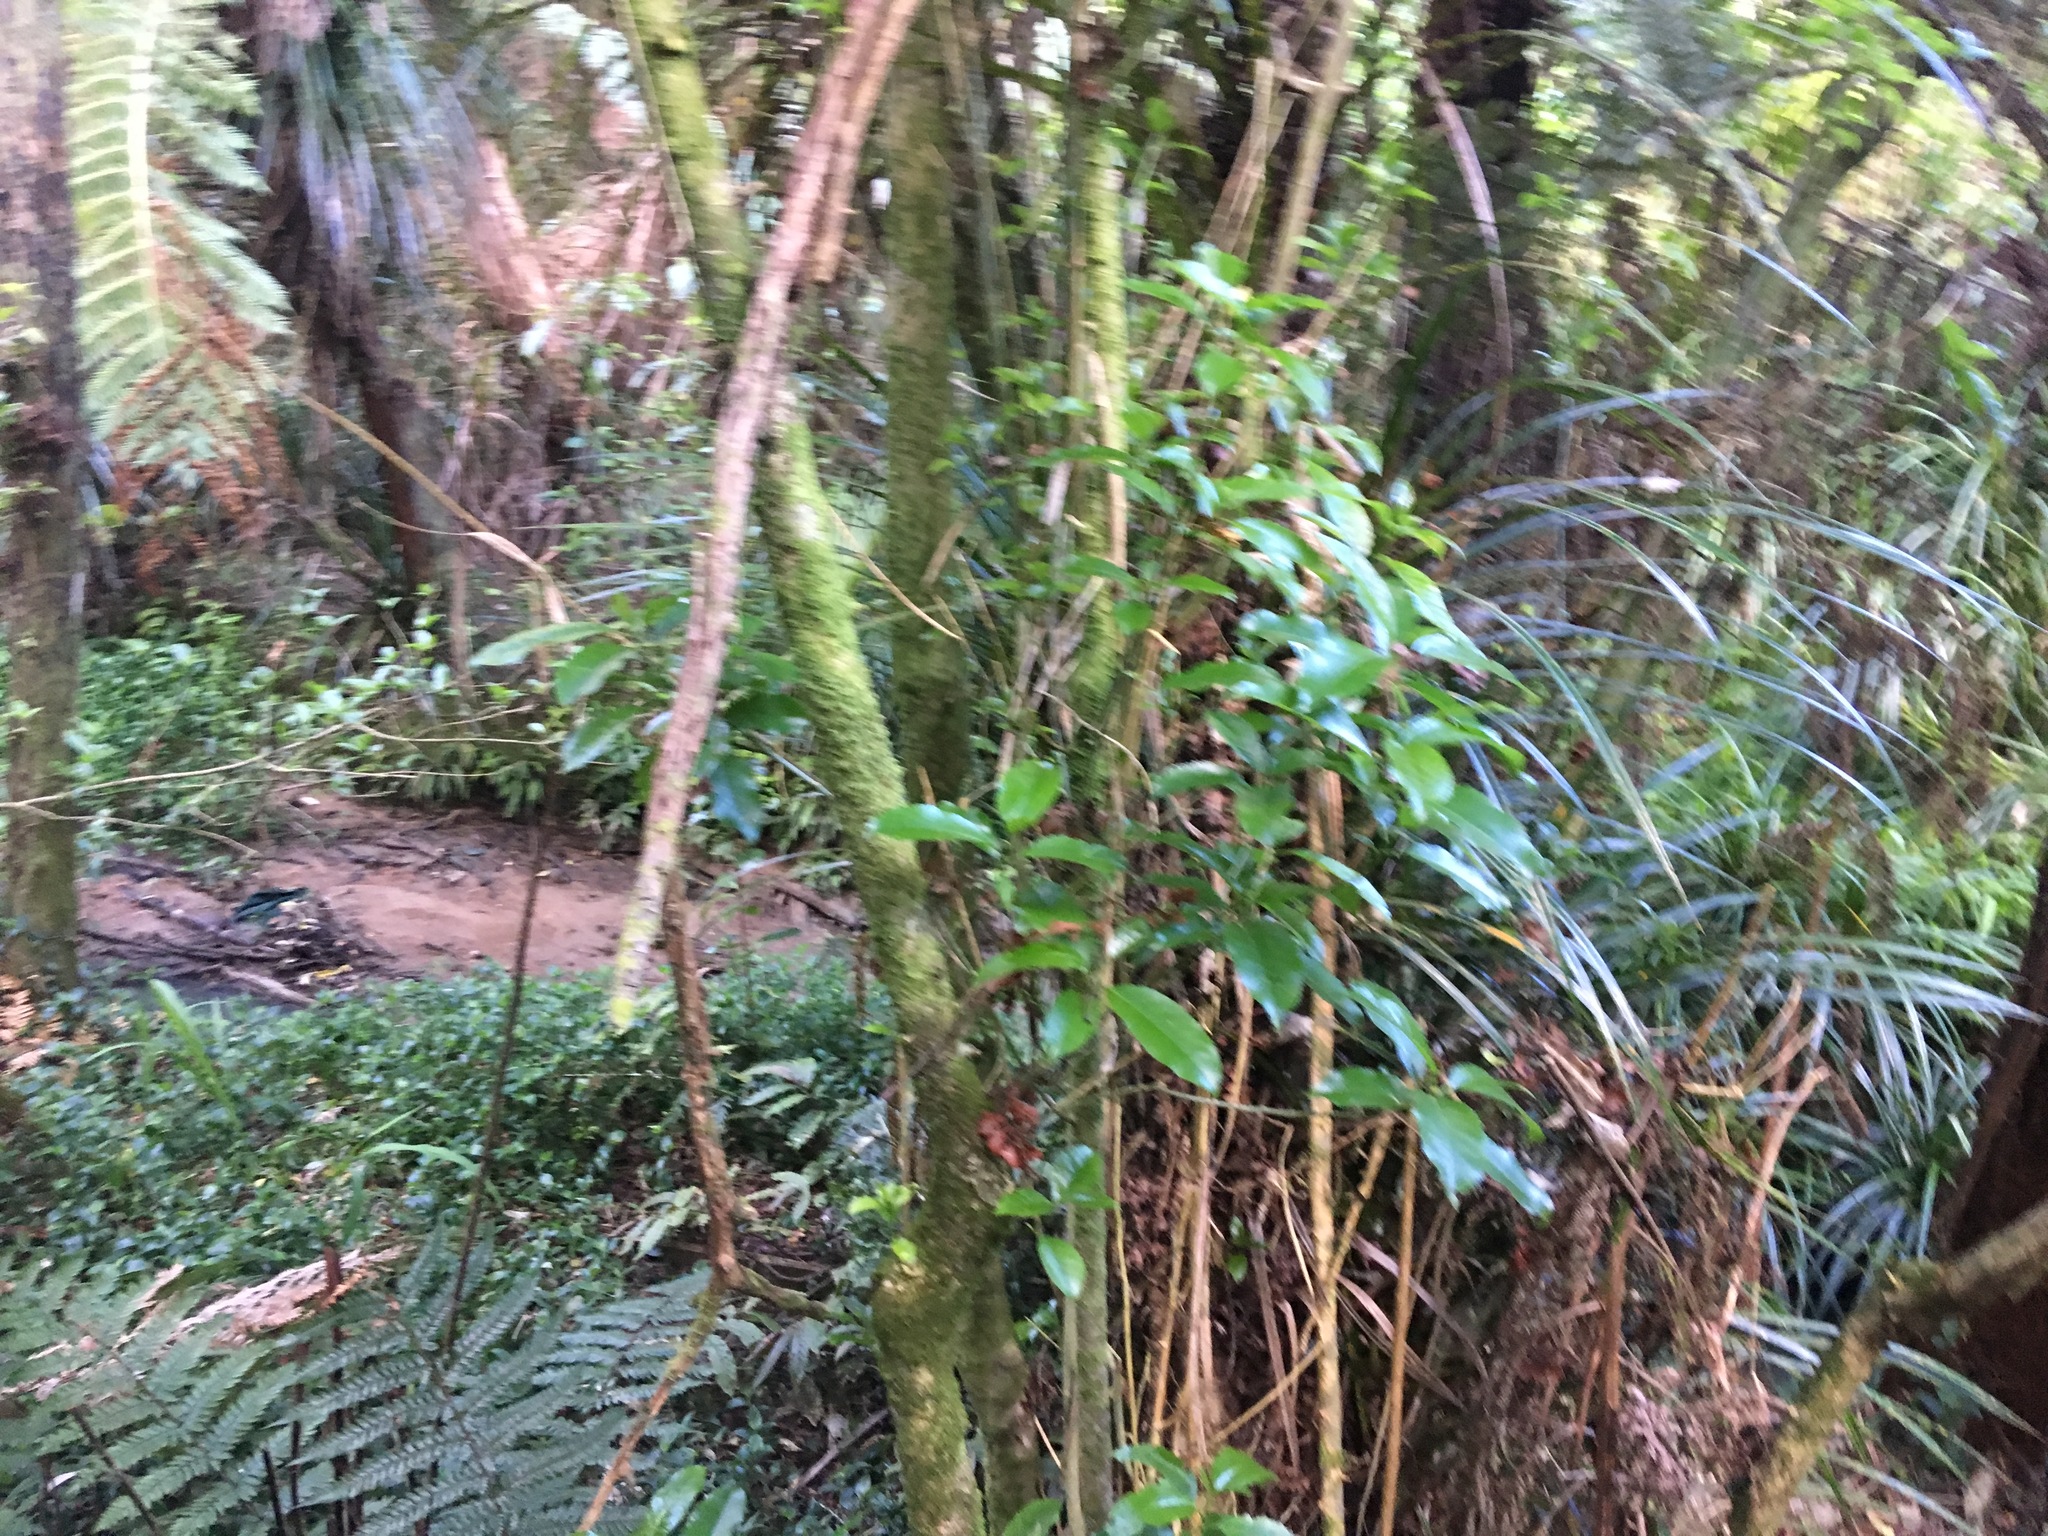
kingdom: Plantae
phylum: Tracheophyta
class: Liliopsida
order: Commelinales
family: Commelinaceae
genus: Tradescantia
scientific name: Tradescantia fluminensis
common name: Wandering-jew
